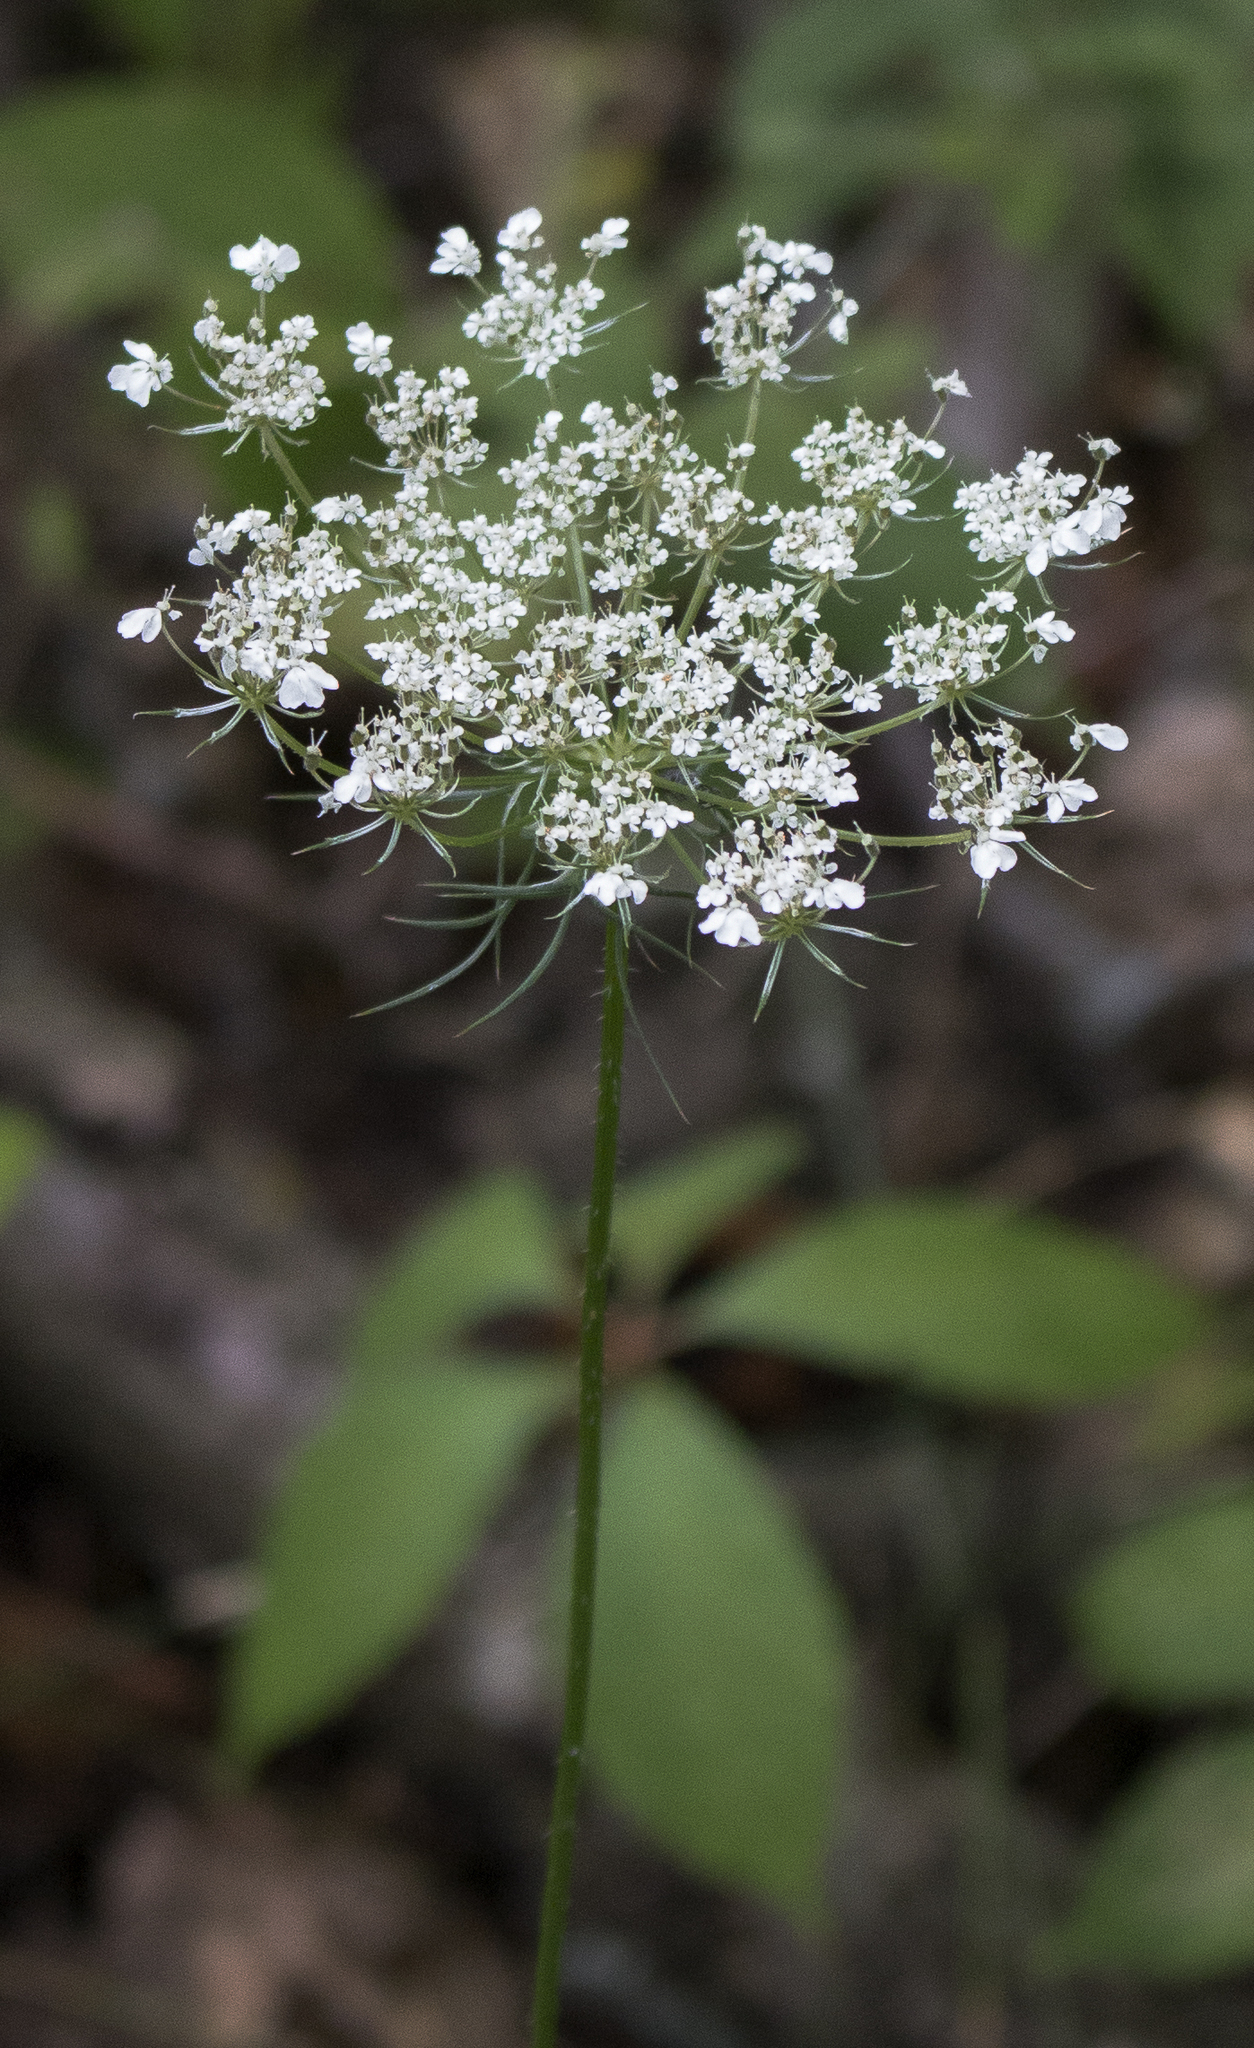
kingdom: Plantae
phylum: Tracheophyta
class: Magnoliopsida
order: Apiales
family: Apiaceae
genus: Daucus
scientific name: Daucus carota
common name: Wild carrot
